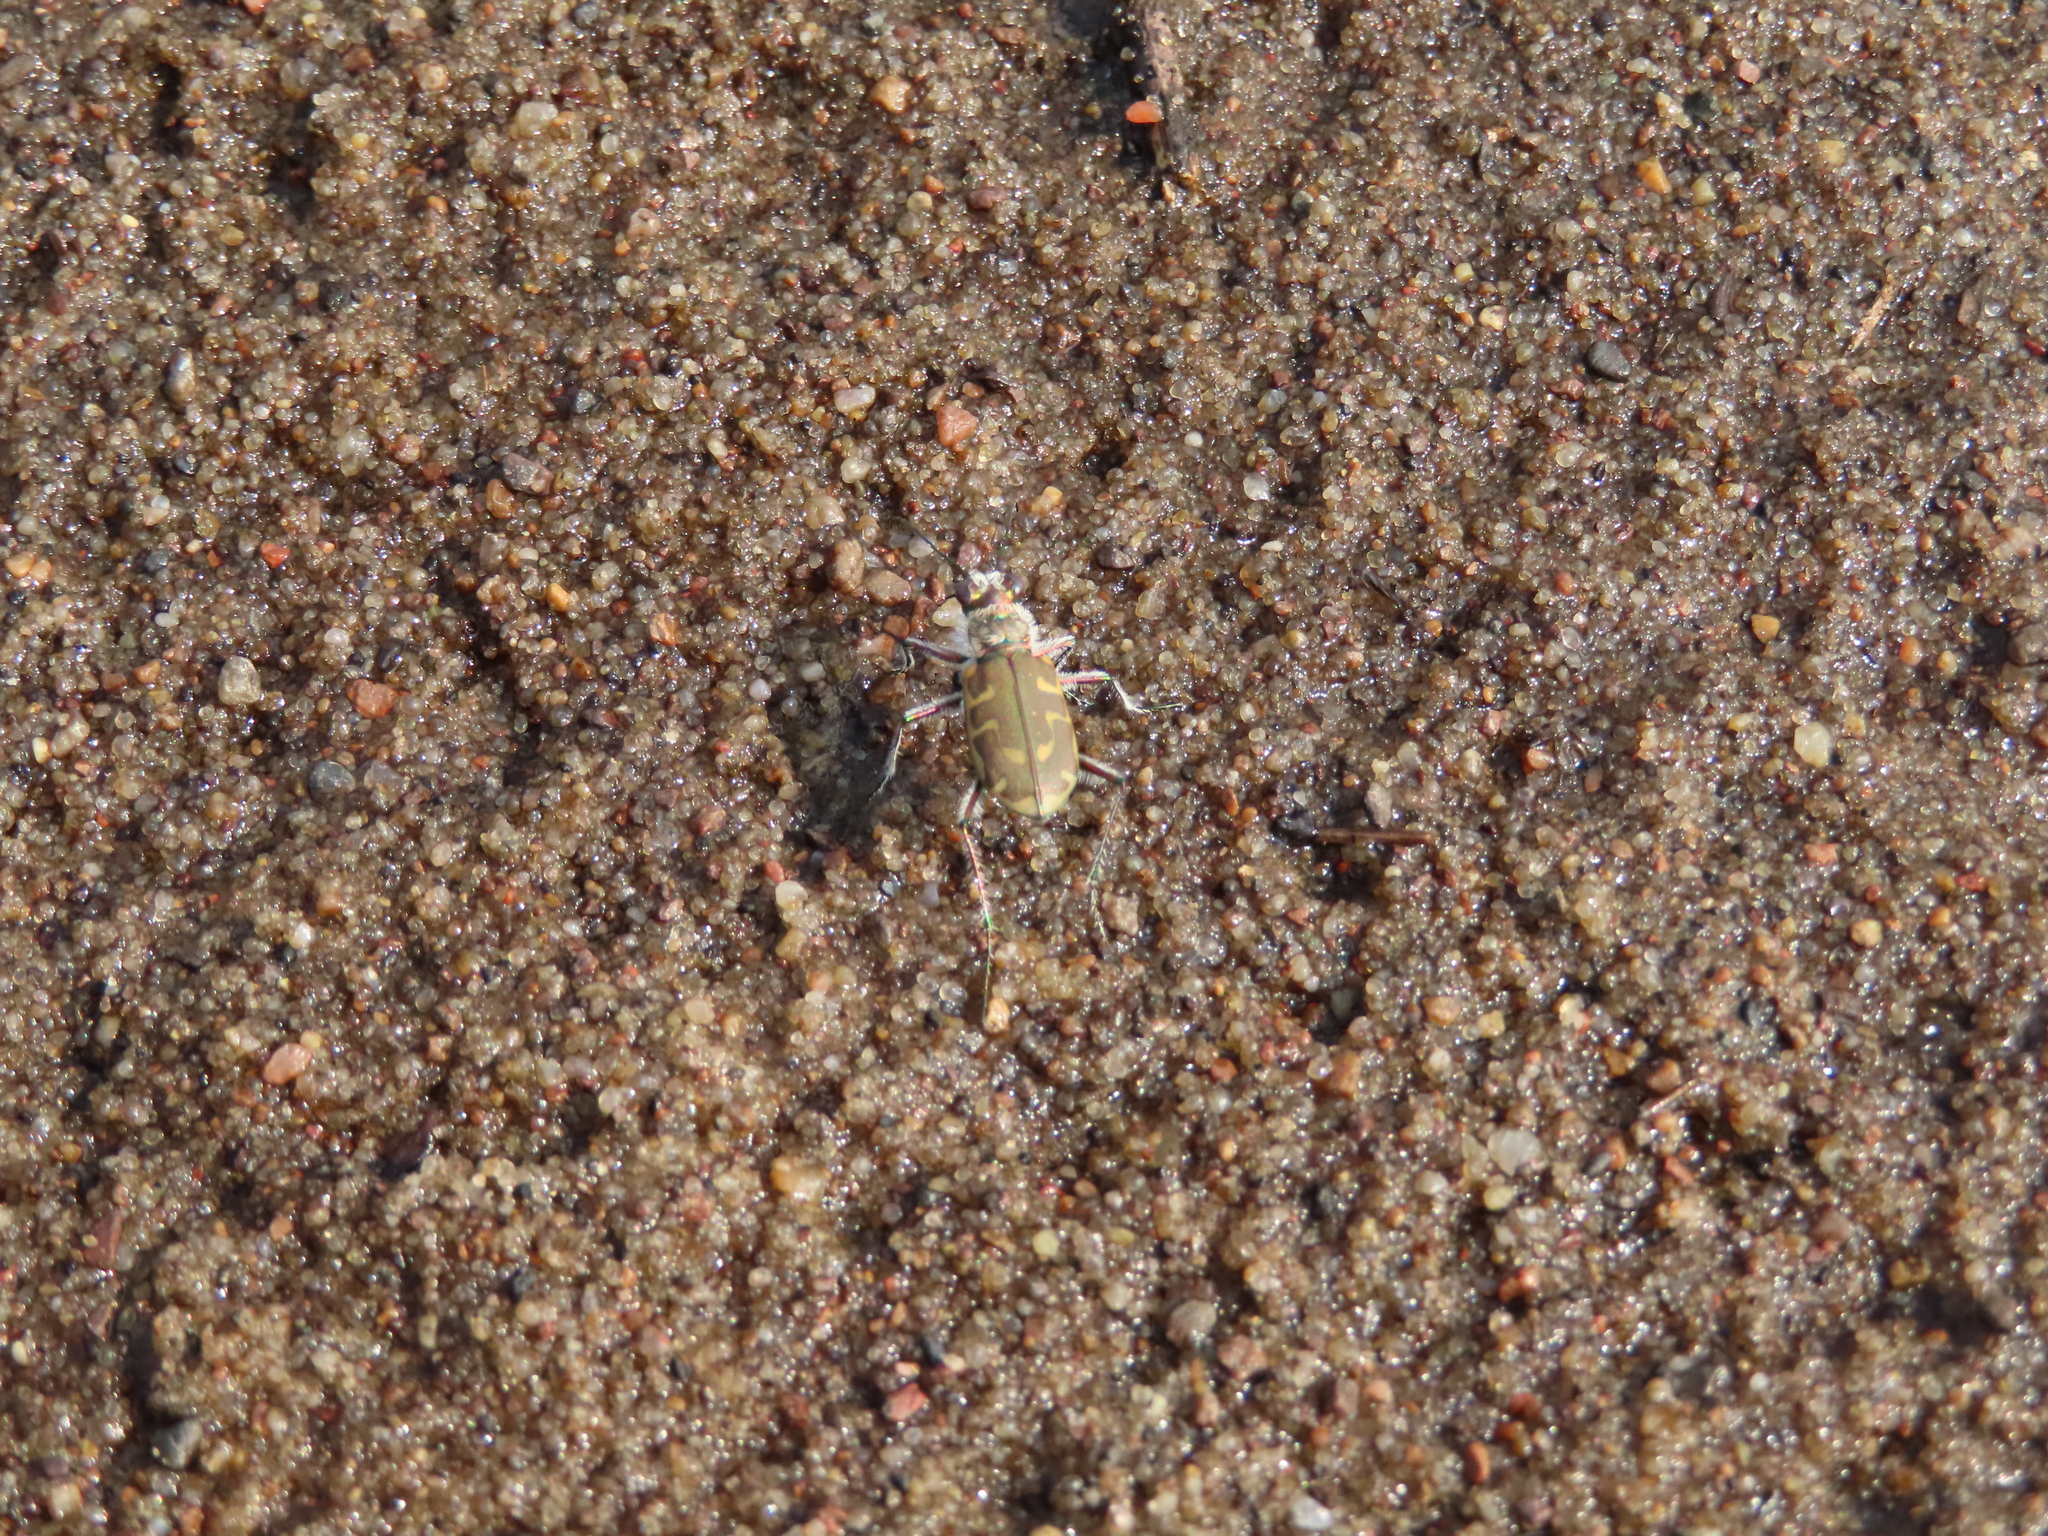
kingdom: Animalia
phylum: Arthropoda
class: Insecta
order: Coleoptera
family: Carabidae
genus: Cicindela
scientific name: Cicindela hirticollis
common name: Hairy-necked tiger beetle
